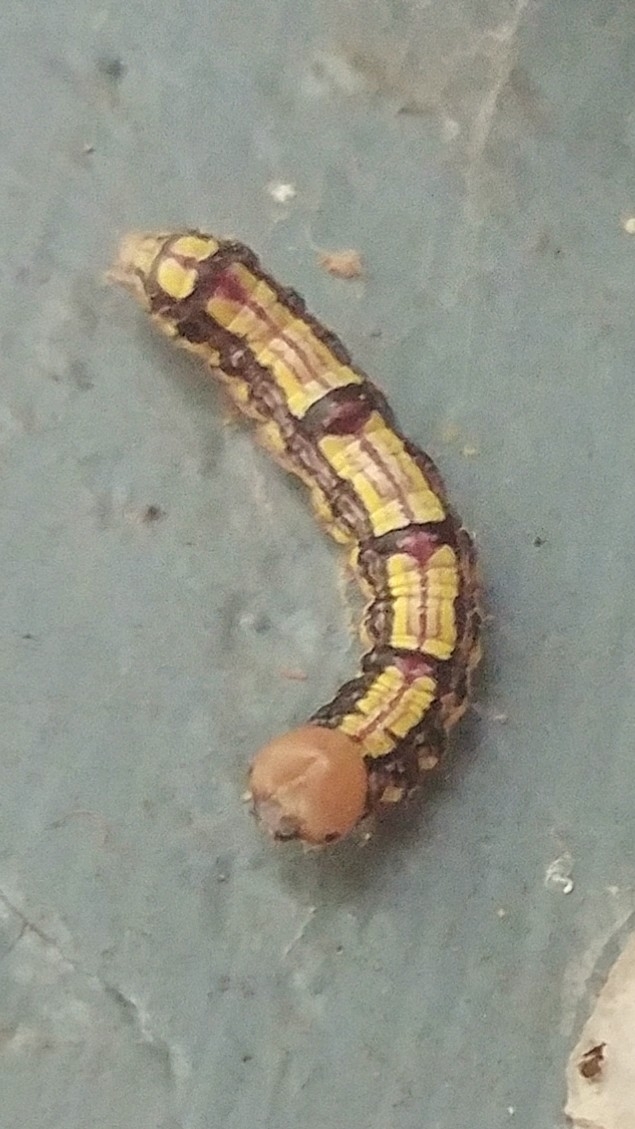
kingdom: Animalia
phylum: Arthropoda
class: Insecta
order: Lepidoptera
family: Notodontidae
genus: Phryganidia
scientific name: Phryganidia californica
